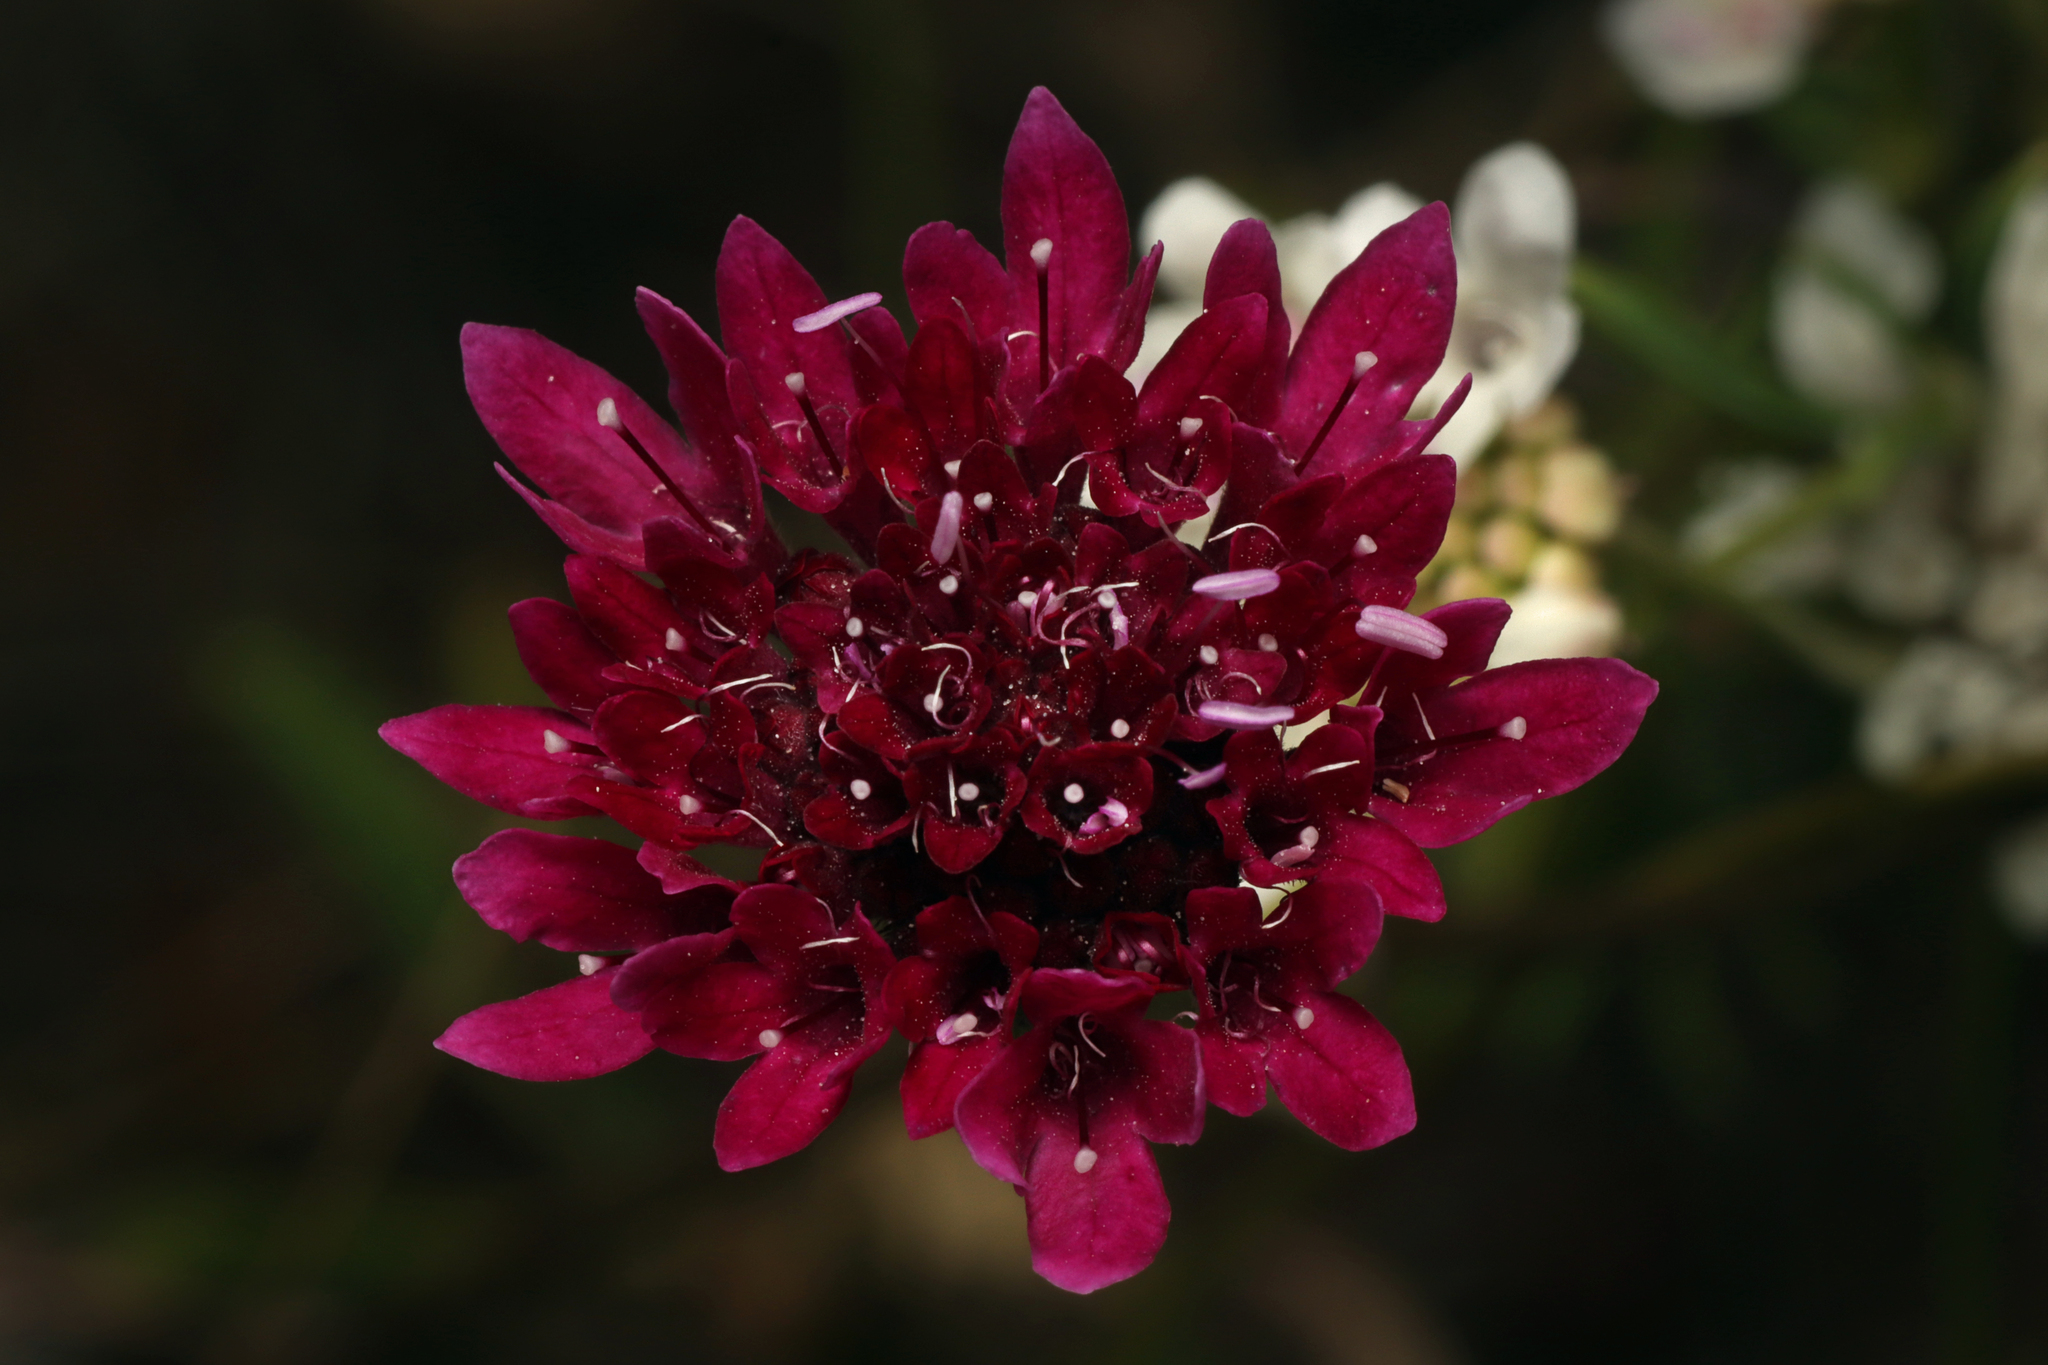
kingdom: Plantae
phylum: Tracheophyta
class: Magnoliopsida
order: Dipsacales
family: Caprifoliaceae
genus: Sixalix
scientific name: Sixalix atropurpurea
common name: Sweet scabious
